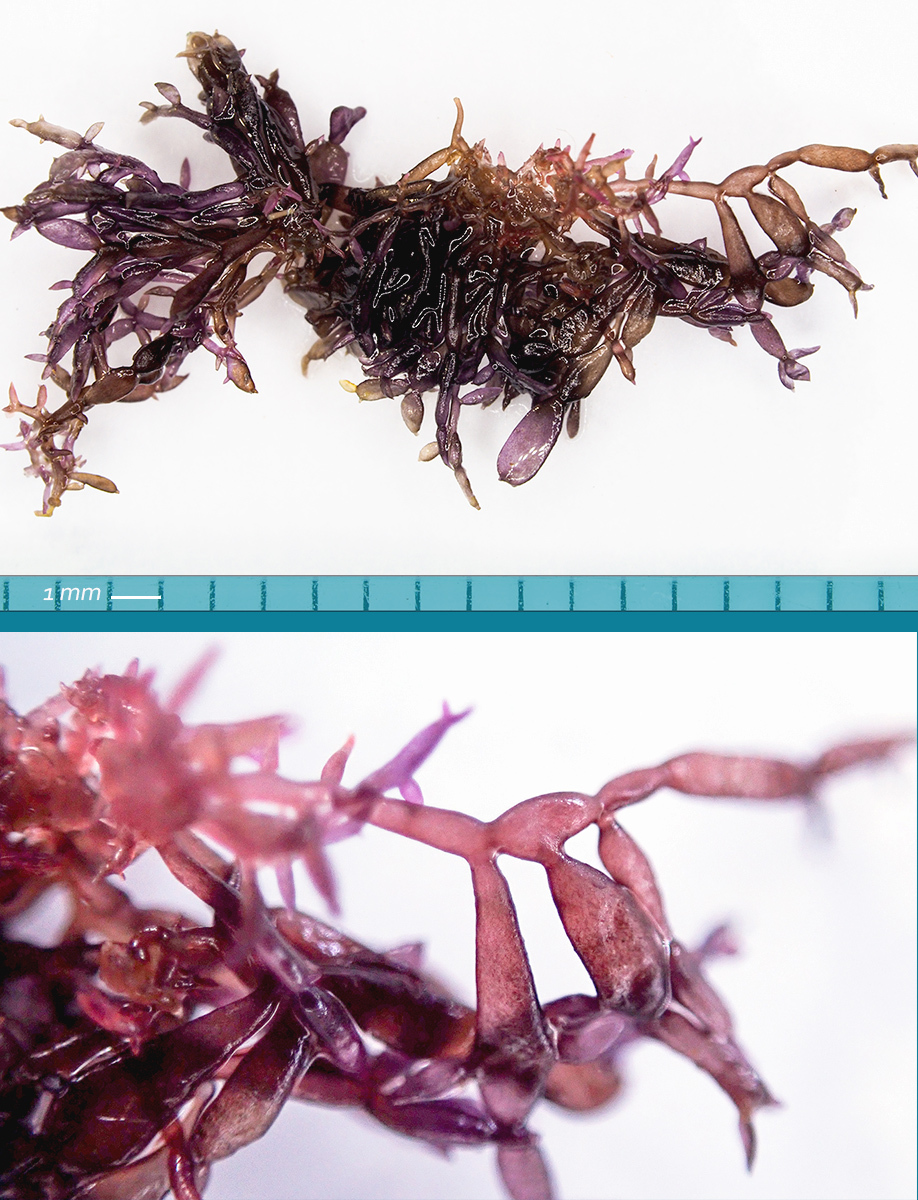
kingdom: Plantae
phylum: Rhodophyta
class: Florideophyceae
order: Gigartinales
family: Caulacanthaceae
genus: Catenella
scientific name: Catenella caespitosa
